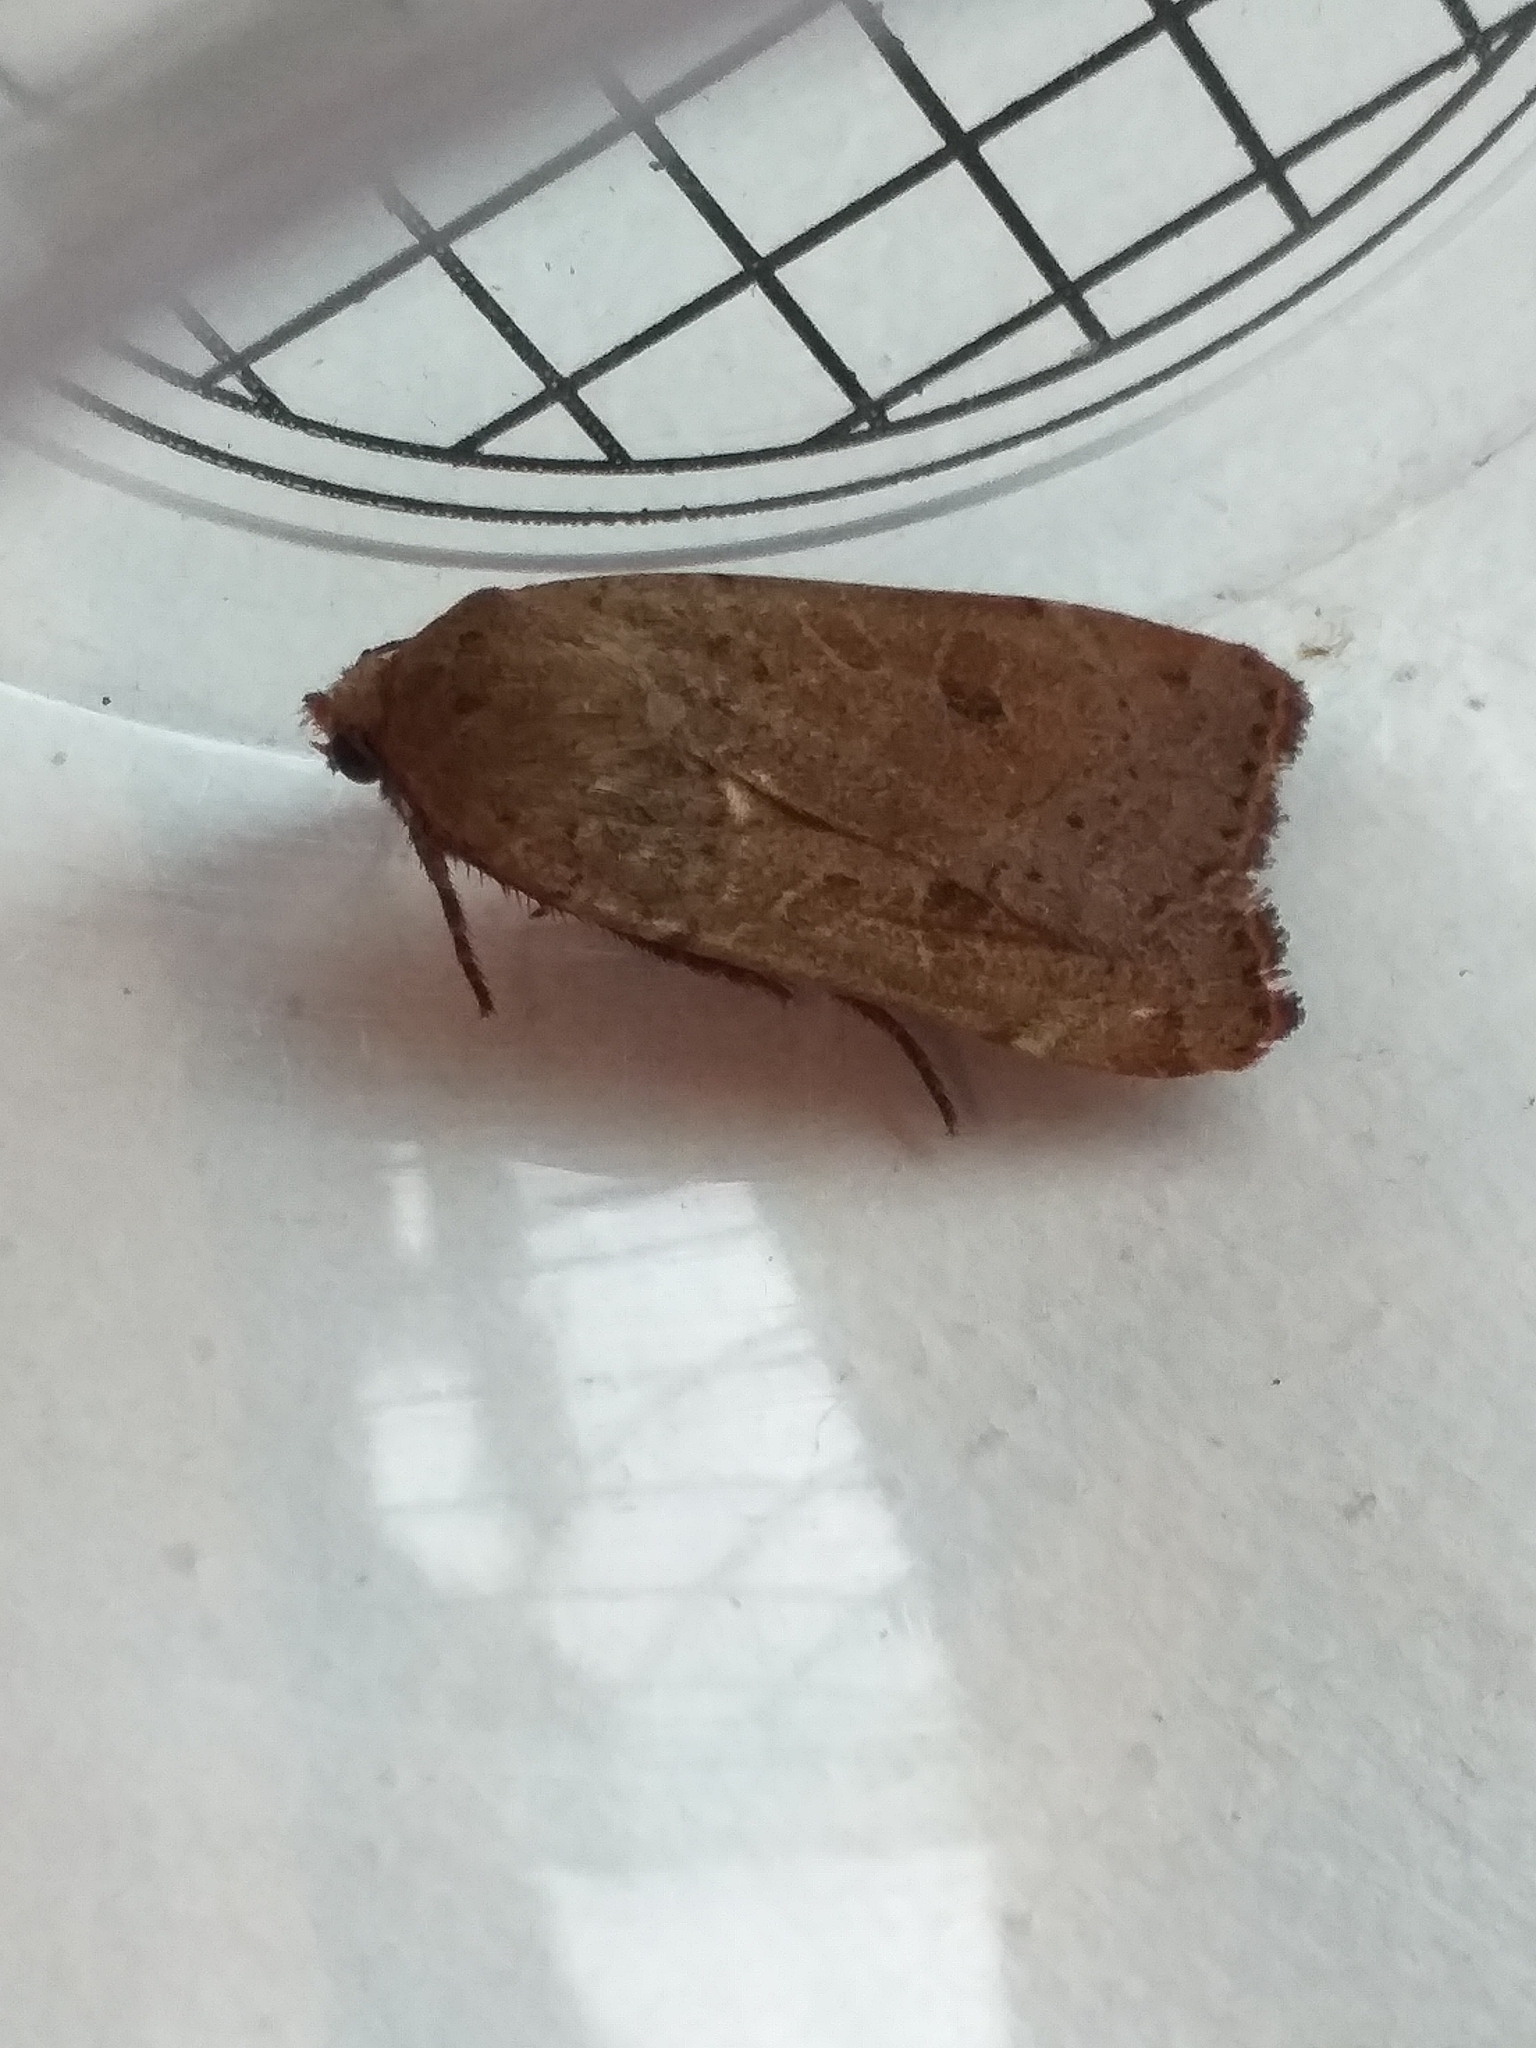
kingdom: Animalia
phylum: Arthropoda
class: Insecta
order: Lepidoptera
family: Noctuidae
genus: Noctua
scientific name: Noctua comes
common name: Lesser yellow underwing
